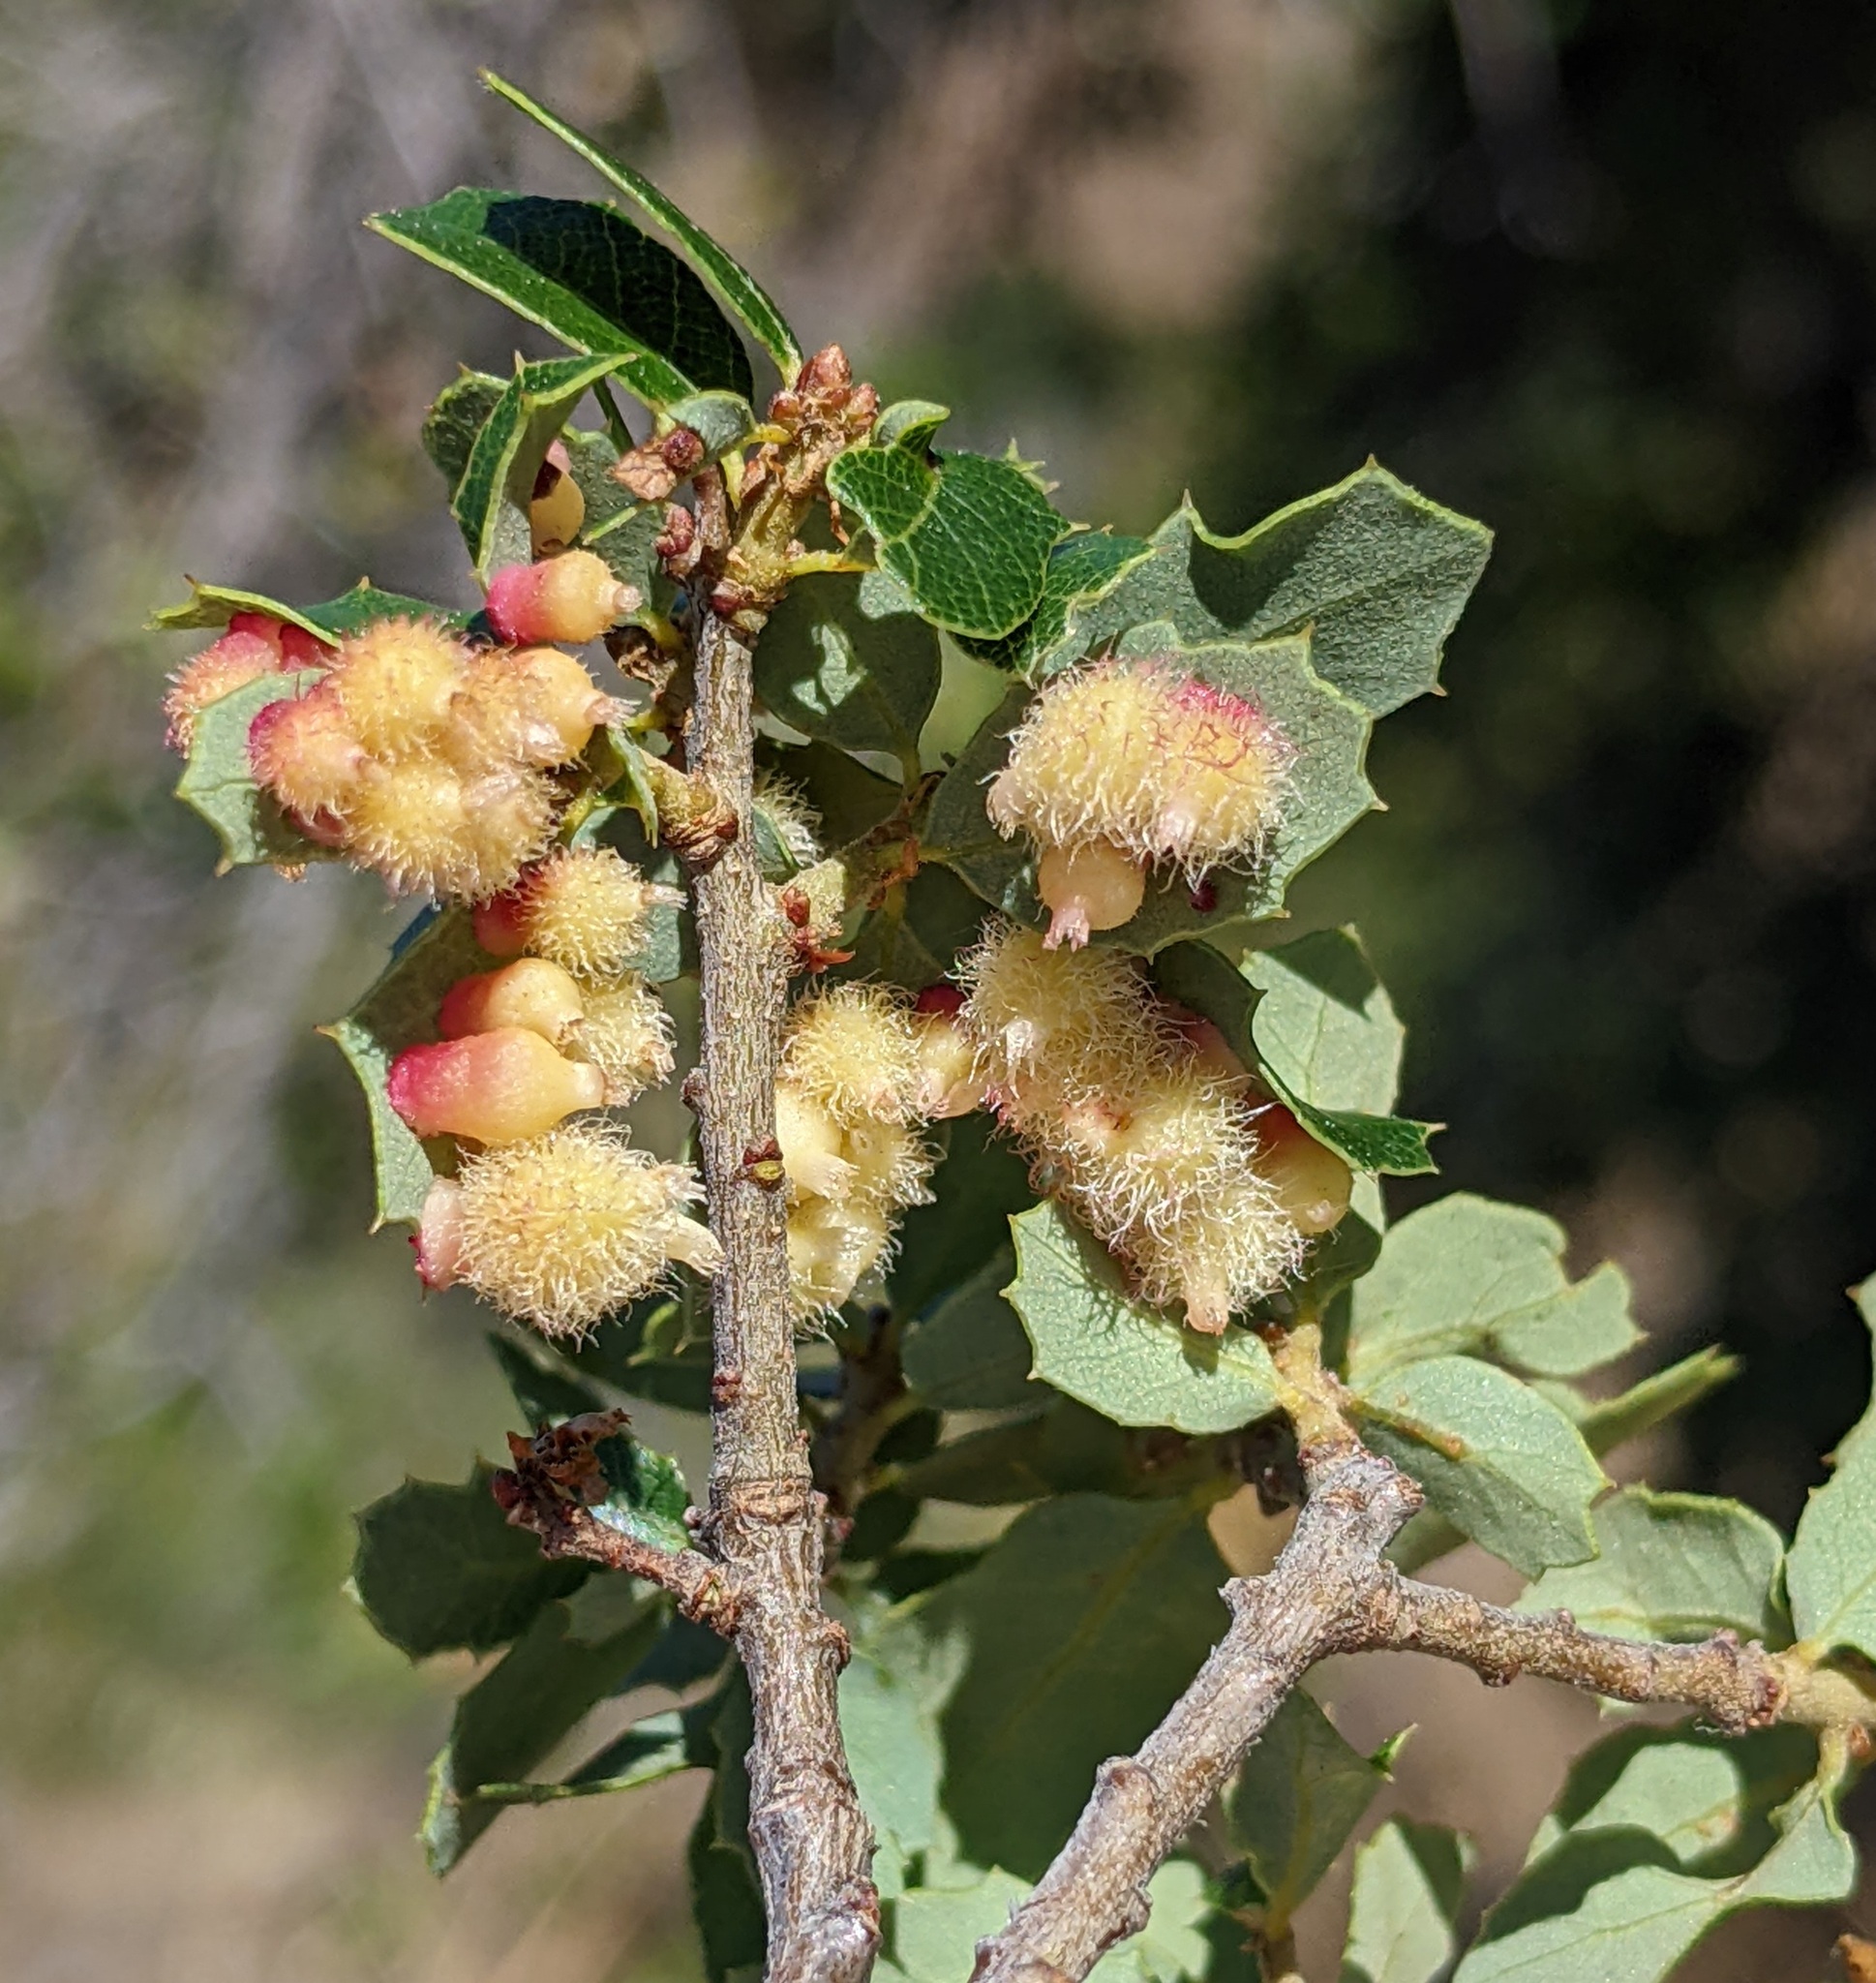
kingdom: Animalia
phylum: Arthropoda
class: Insecta
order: Hymenoptera
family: Cynipidae
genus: Andricus
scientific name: Andricus
